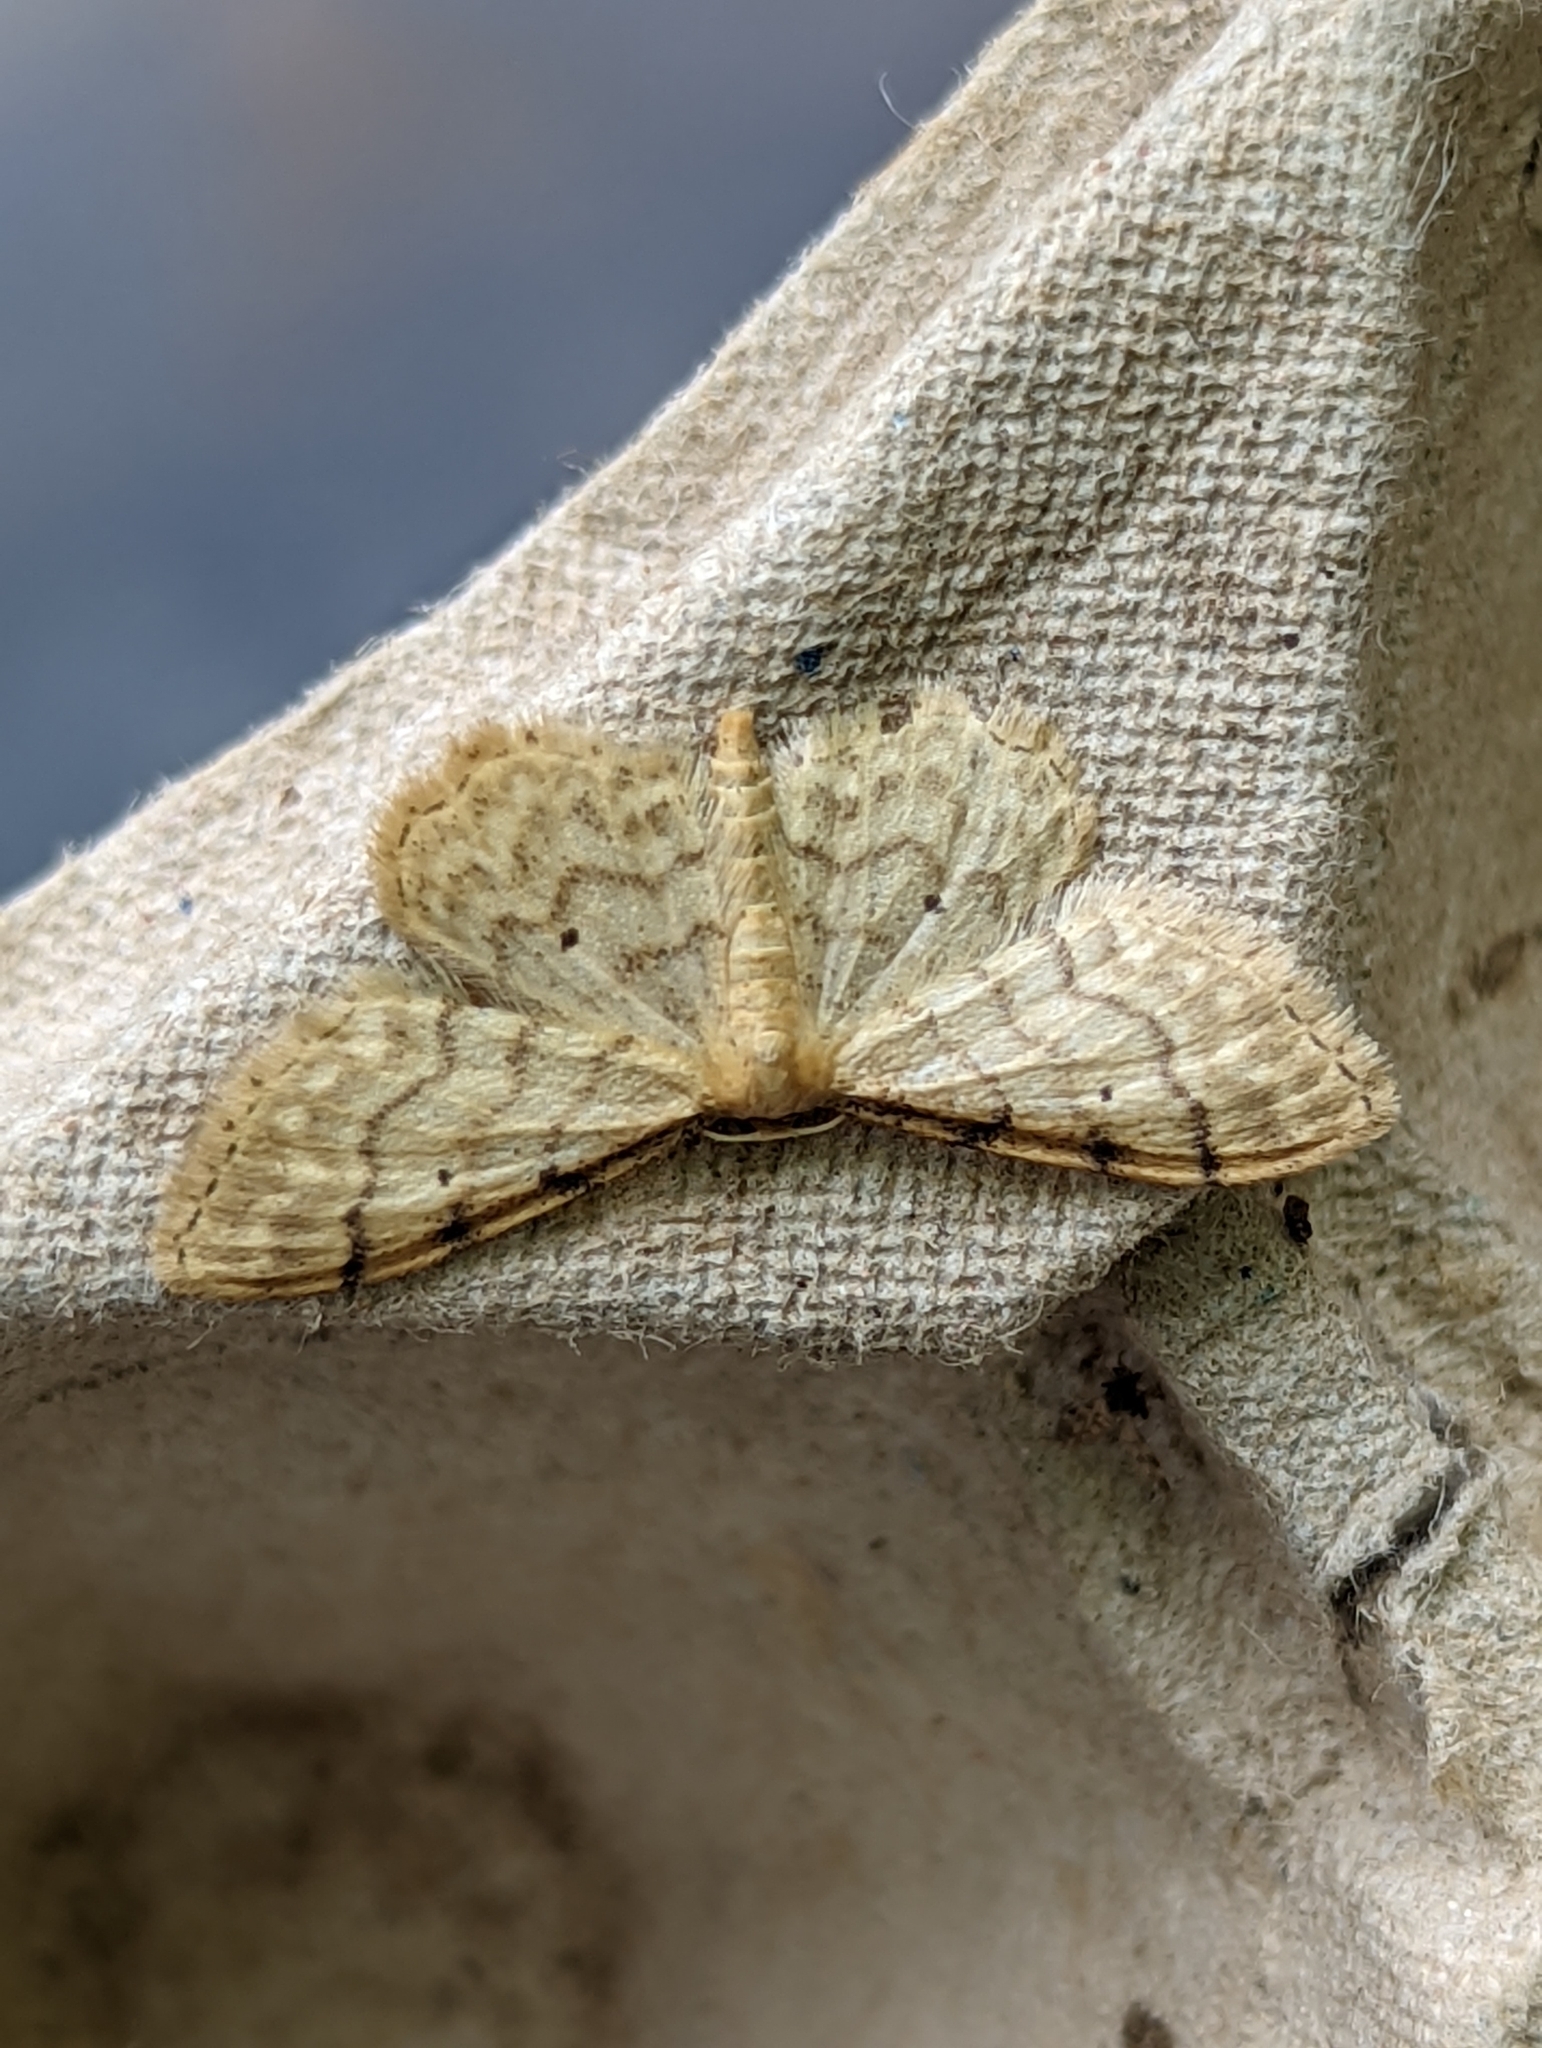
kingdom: Animalia
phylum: Arthropoda
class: Insecta
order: Lepidoptera
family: Geometridae
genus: Idaea
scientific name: Idaea fuscovenosa
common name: Dwarf cream wave
